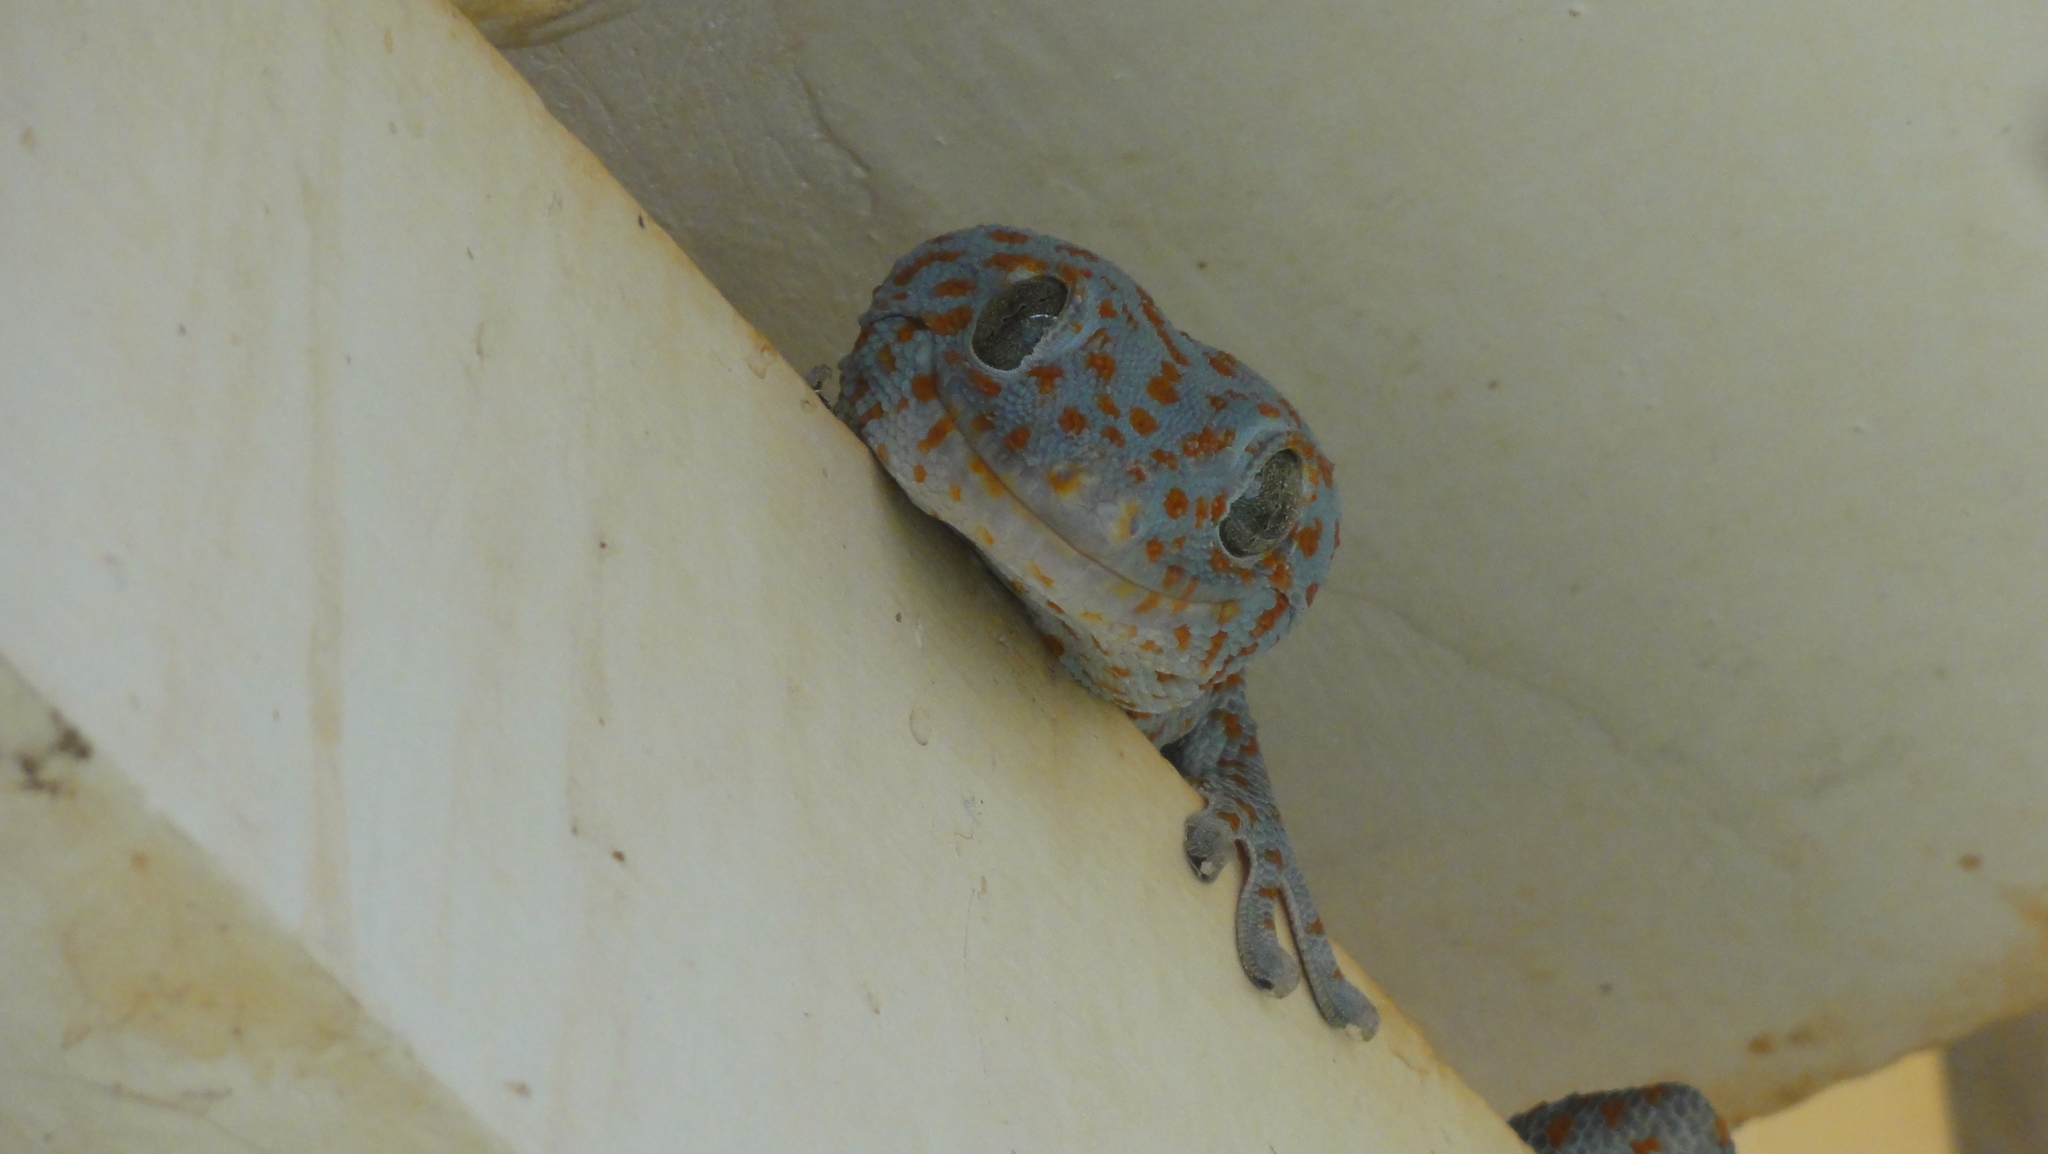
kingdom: Animalia
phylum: Chordata
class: Squamata
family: Gekkonidae
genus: Gekko
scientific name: Gekko gecko
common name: Tokay gecko
